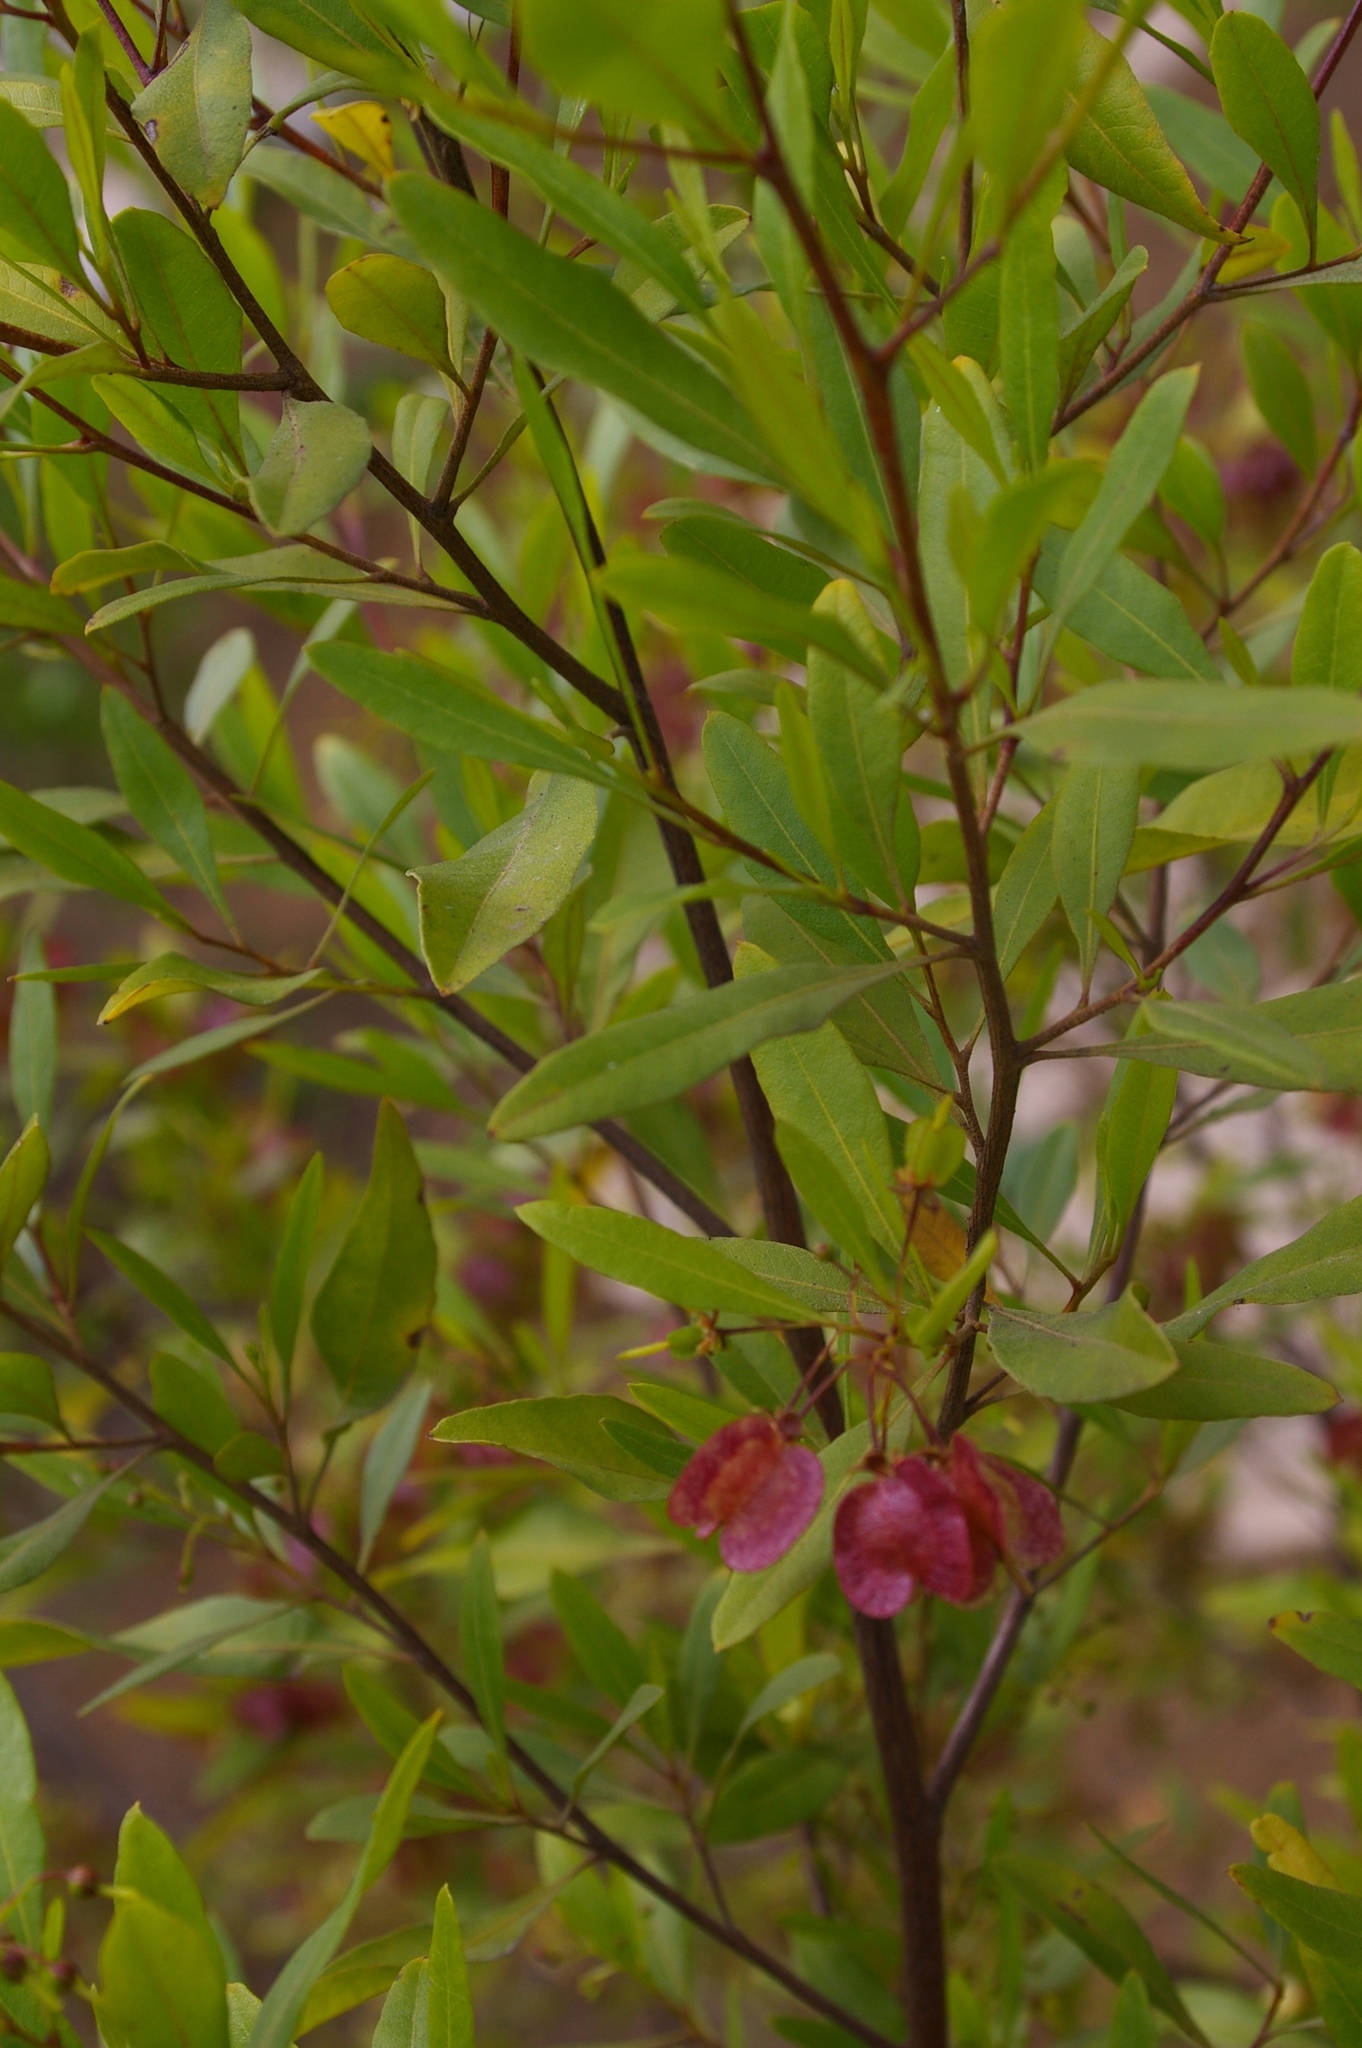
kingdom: Plantae
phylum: Tracheophyta
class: Magnoliopsida
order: Sapindales
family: Sapindaceae
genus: Dodonaea
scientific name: Dodonaea viscosa
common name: Hopbush
